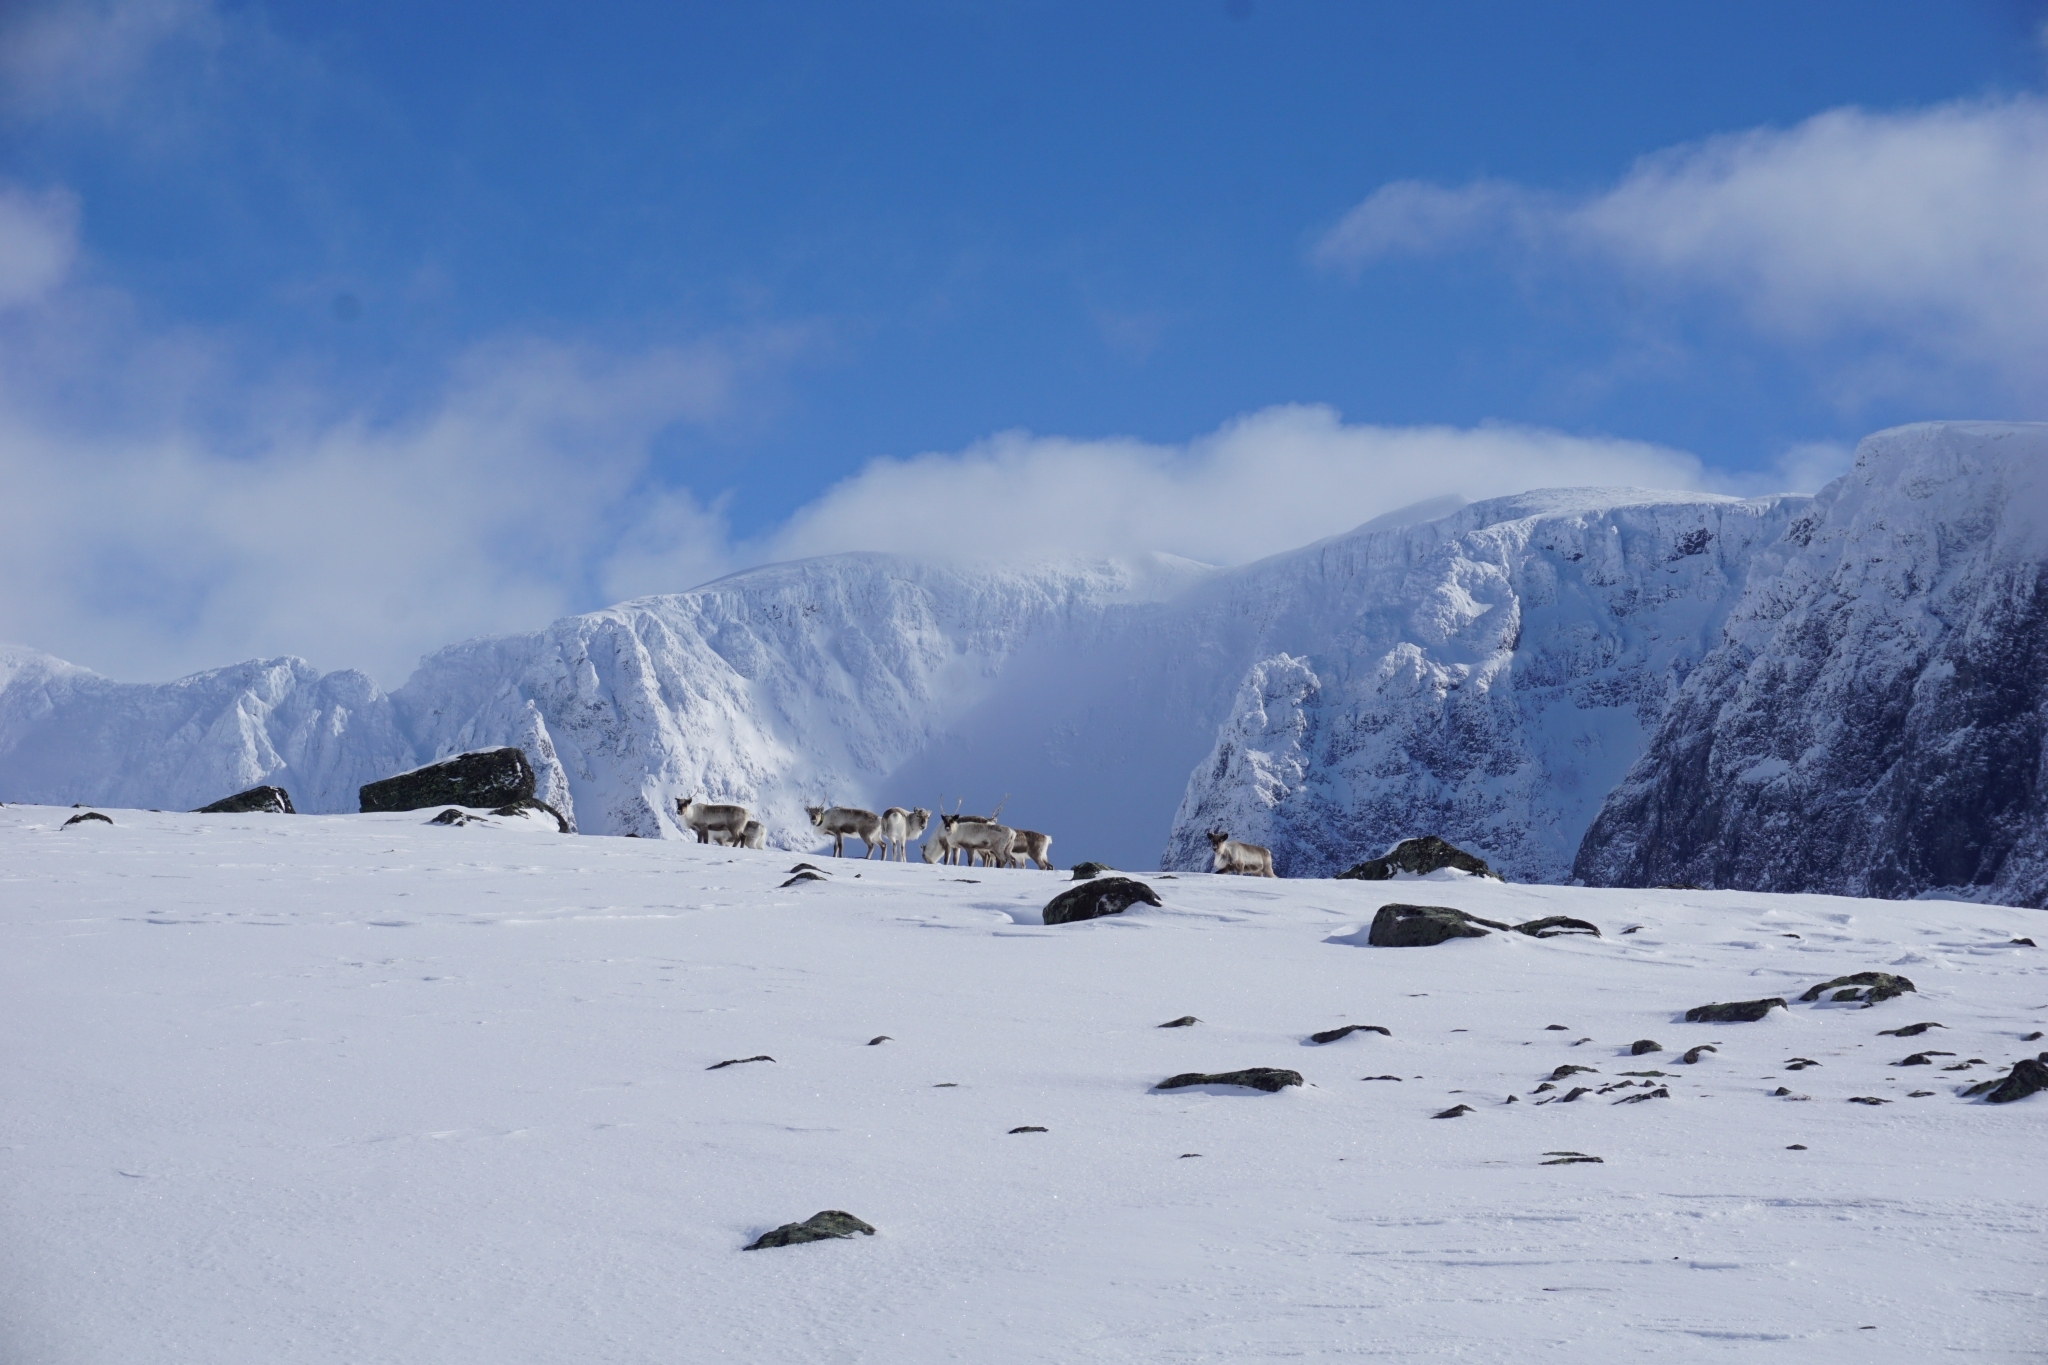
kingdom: Animalia
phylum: Chordata
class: Mammalia
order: Artiodactyla
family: Cervidae
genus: Rangifer
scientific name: Rangifer tarandus
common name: Reindeer
